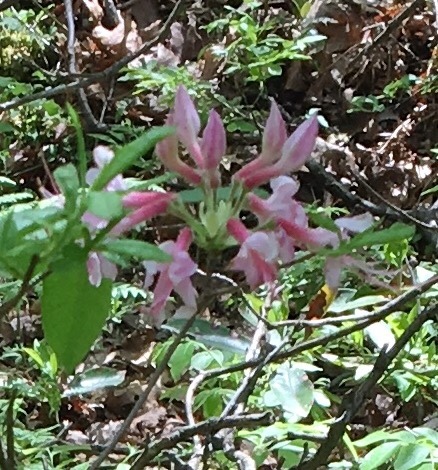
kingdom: Plantae
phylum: Tracheophyta
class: Magnoliopsida
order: Ericales
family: Ericaceae
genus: Rhododendron
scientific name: Rhododendron periclymenoides
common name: Election-pink
